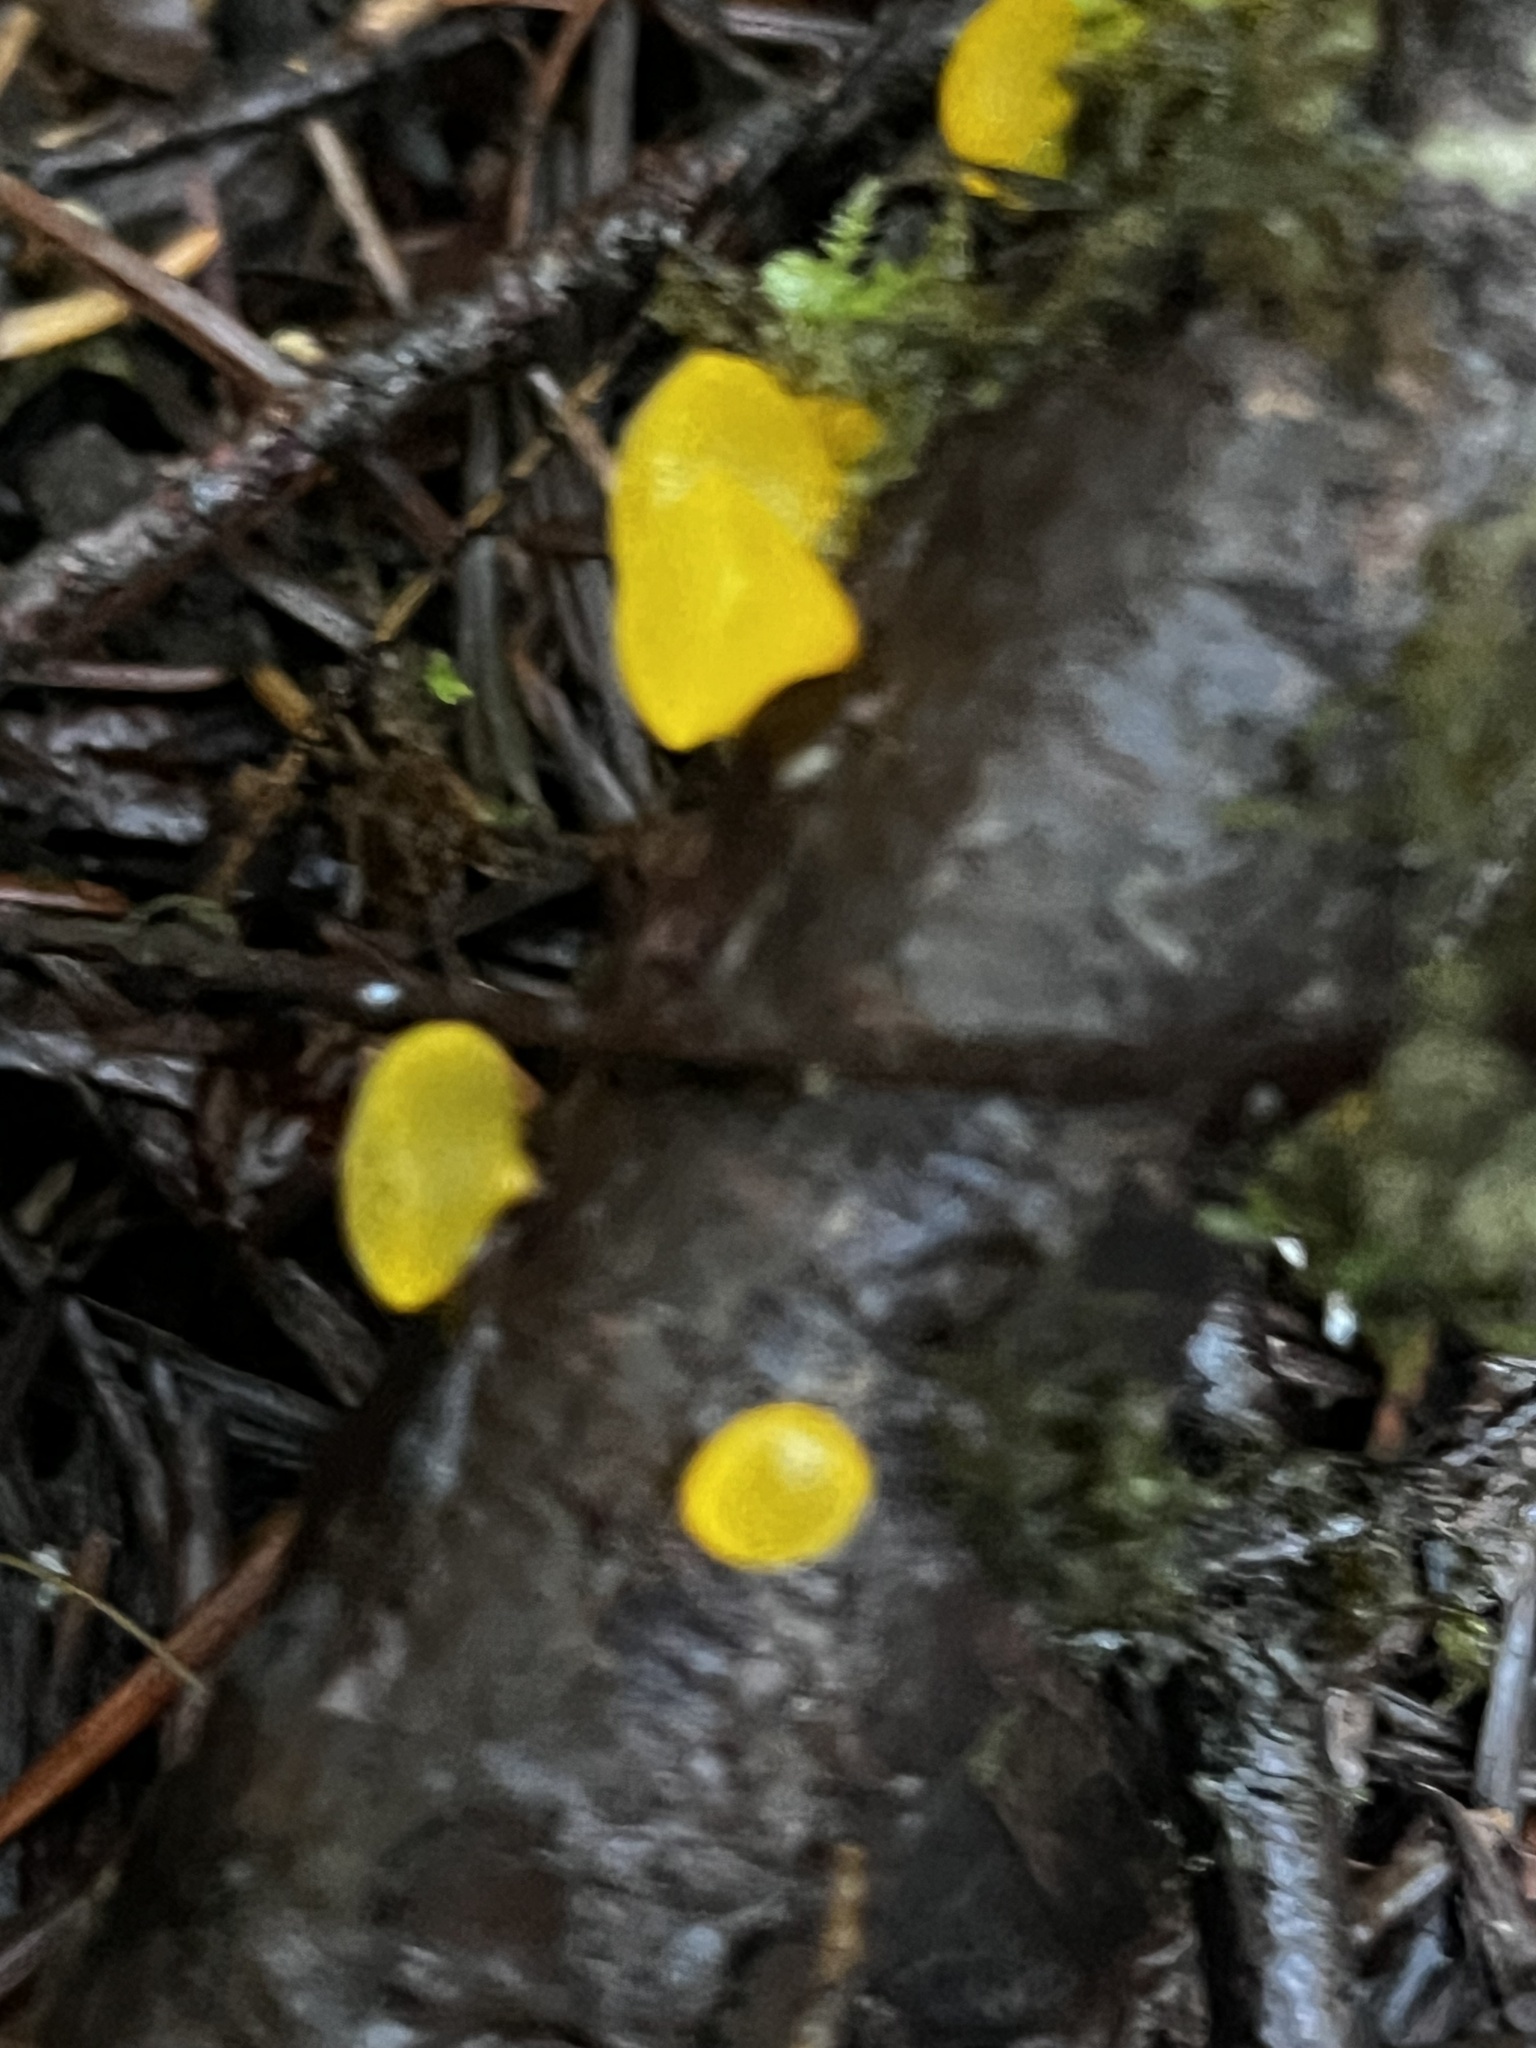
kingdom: Fungi
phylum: Basidiomycota
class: Dacrymycetes
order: Dacrymycetales
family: Dacrymycetaceae
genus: Guepiniopsis
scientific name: Guepiniopsis alpina
